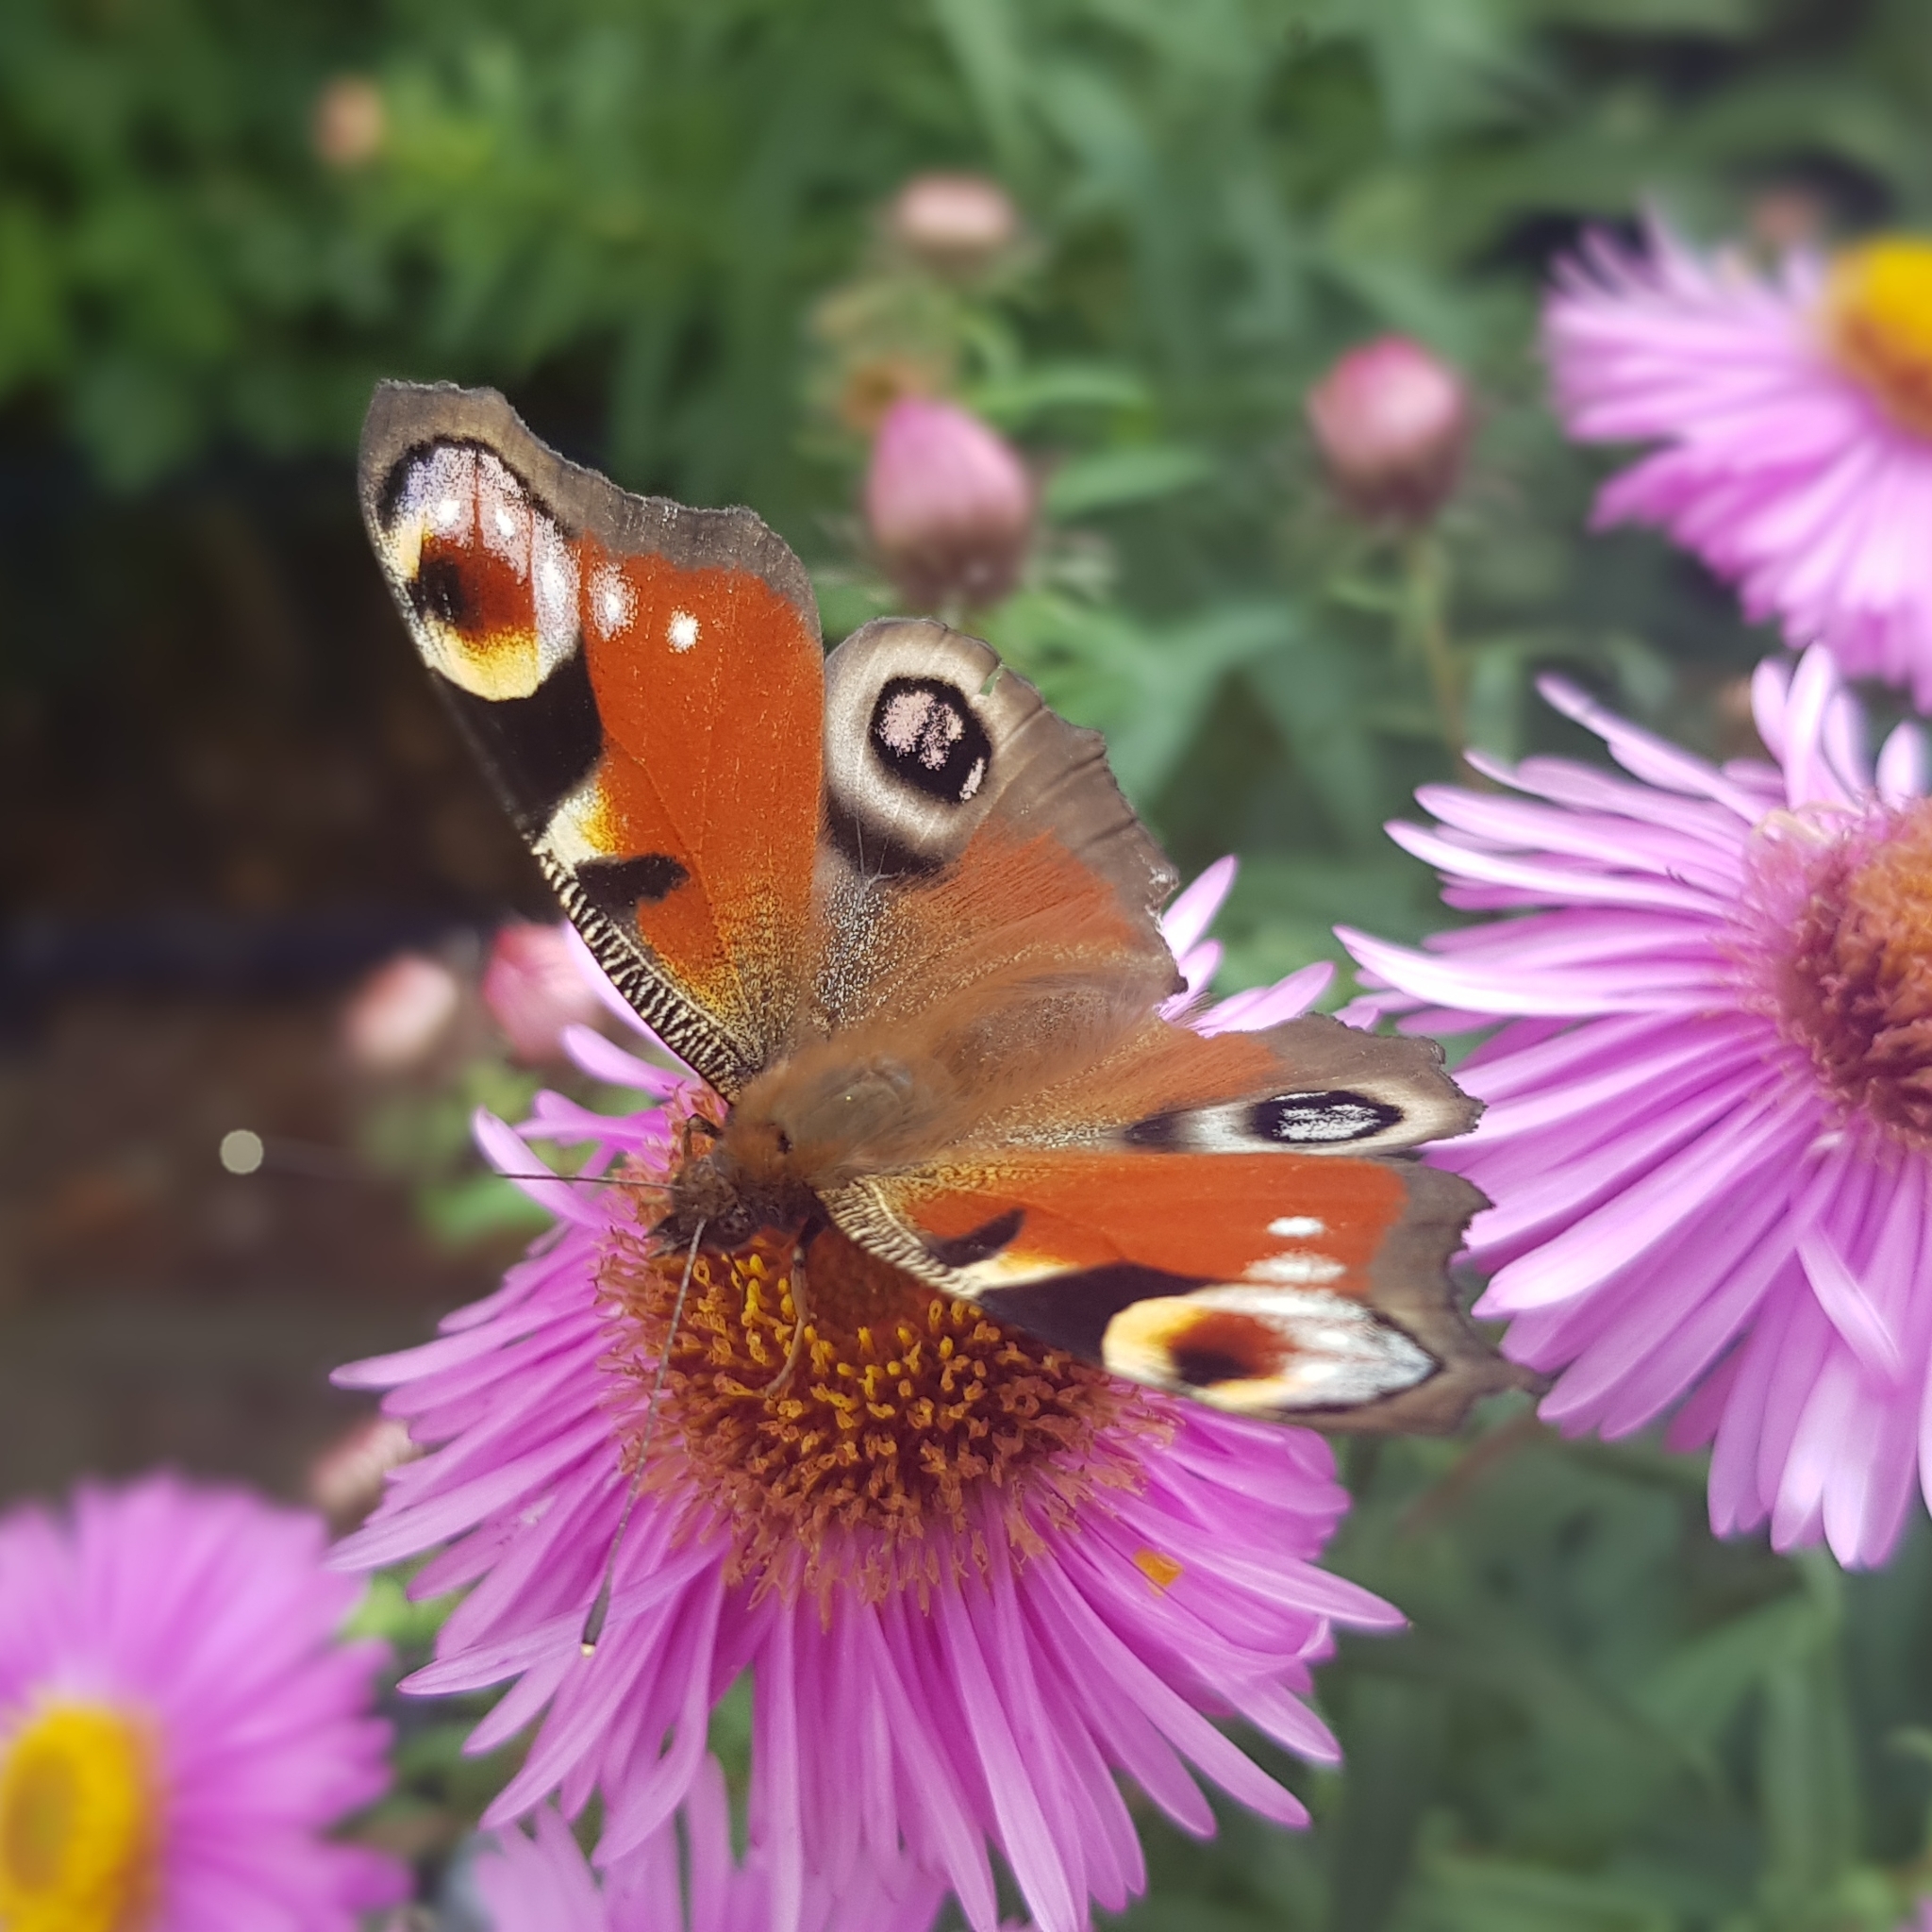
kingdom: Animalia
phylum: Arthropoda
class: Insecta
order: Lepidoptera
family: Nymphalidae
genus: Aglais
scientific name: Aglais io
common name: Peacock
